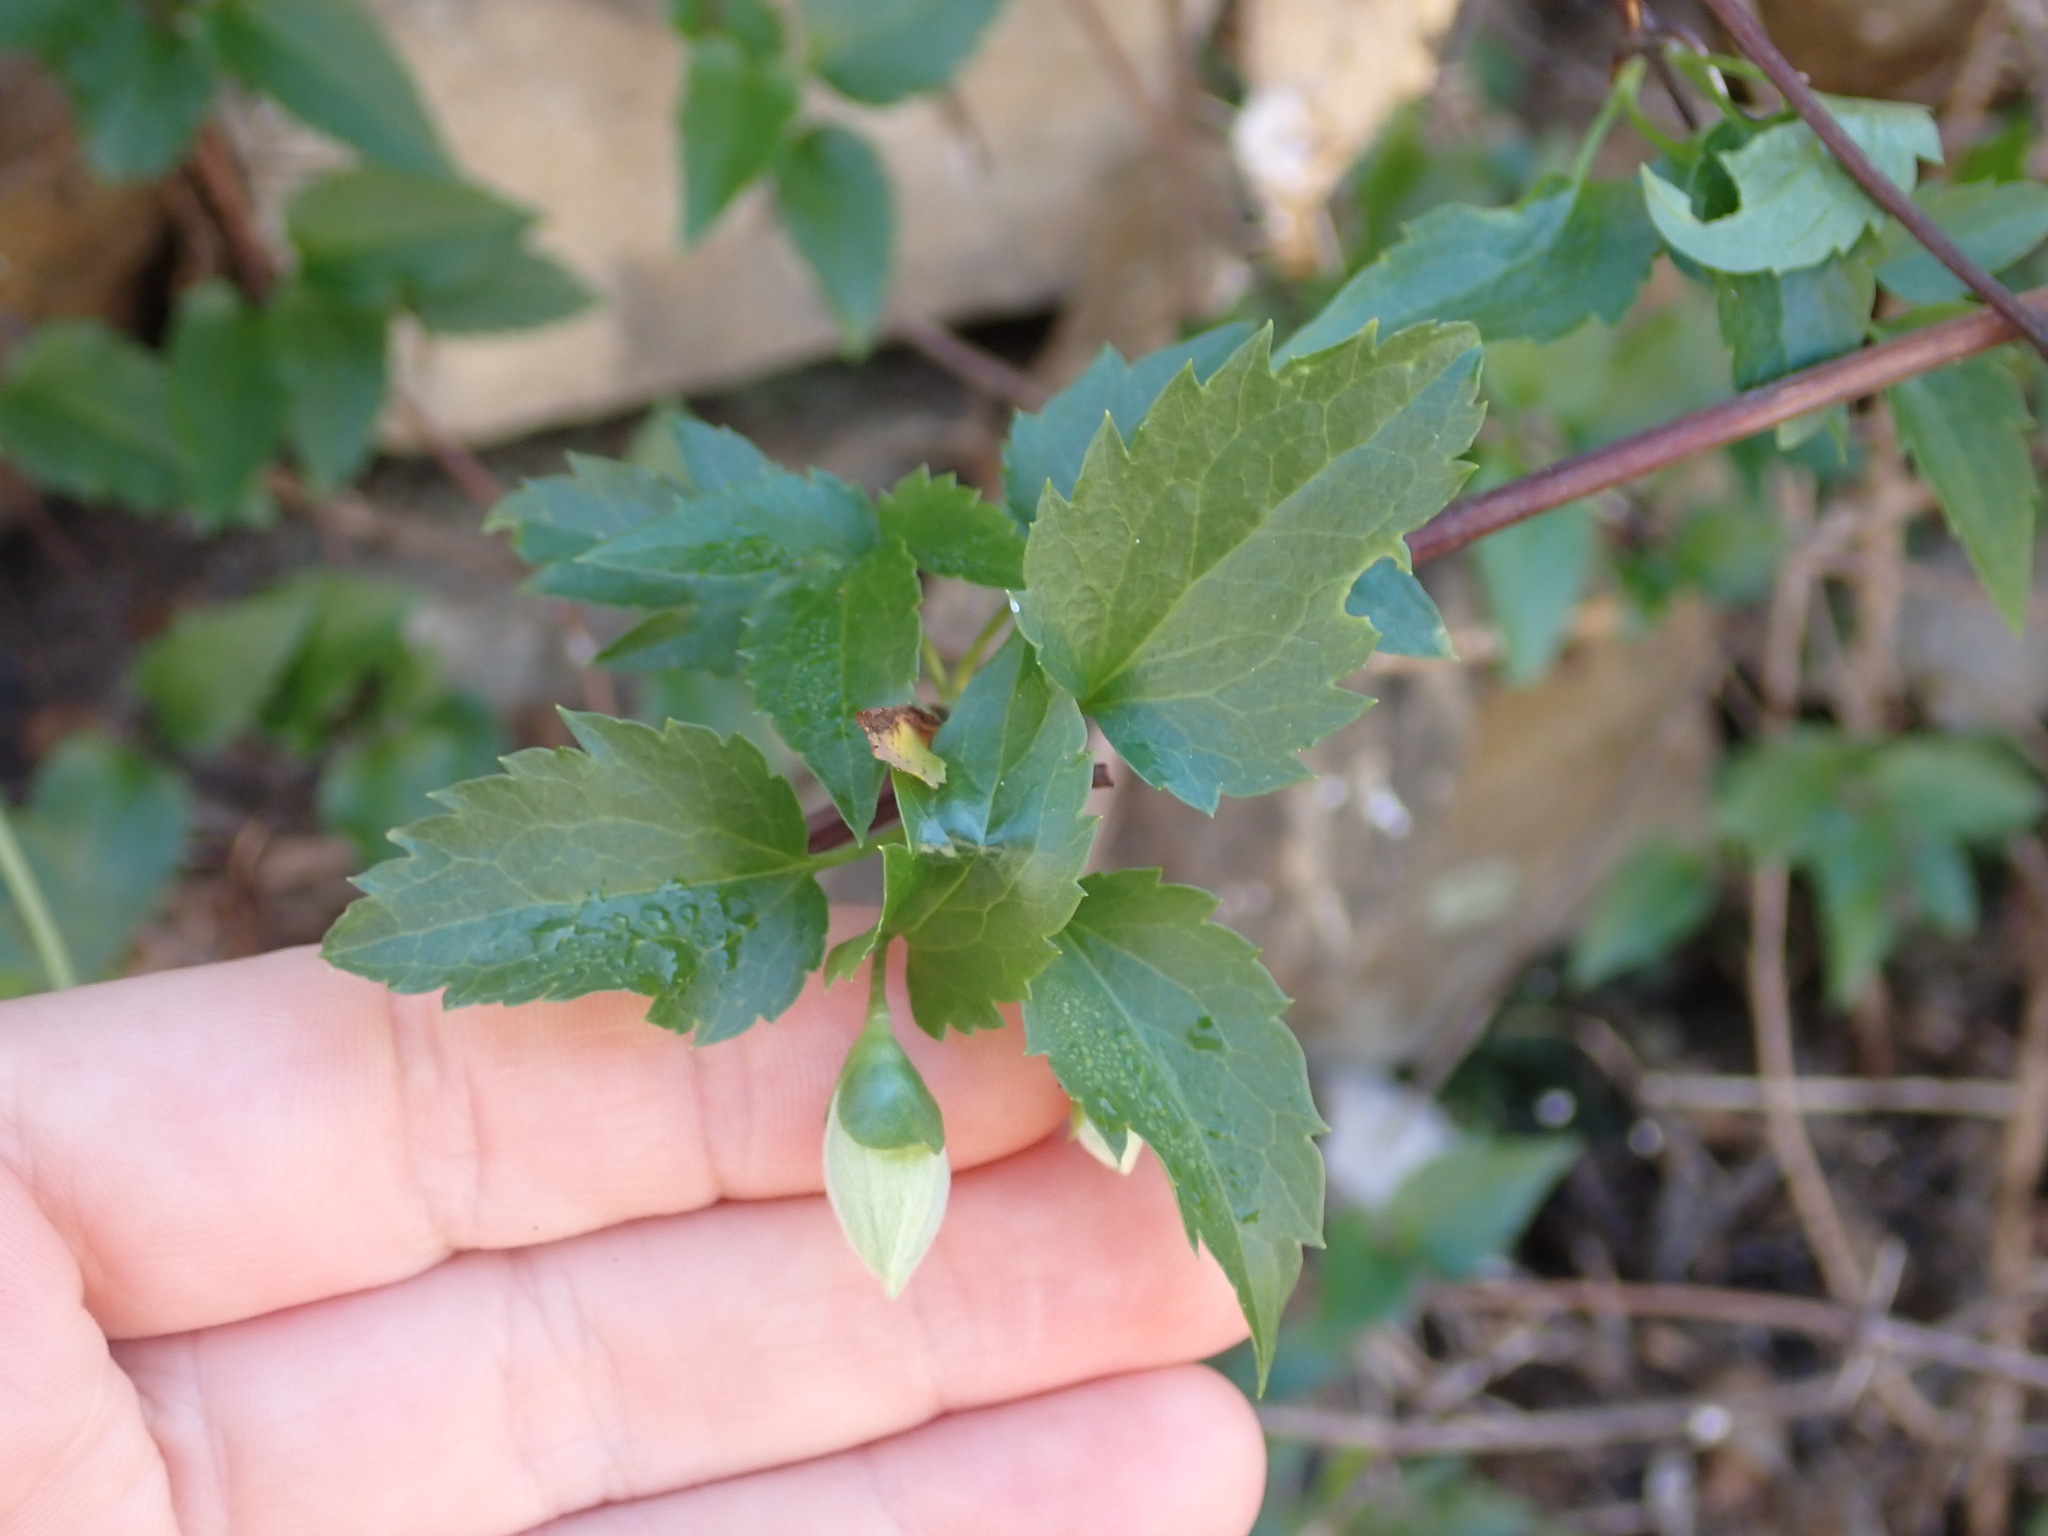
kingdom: Plantae
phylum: Tracheophyta
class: Magnoliopsida
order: Ranunculales
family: Ranunculaceae
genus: Clematis
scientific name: Clematis cirrhosa
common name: Early virgin's-bower
